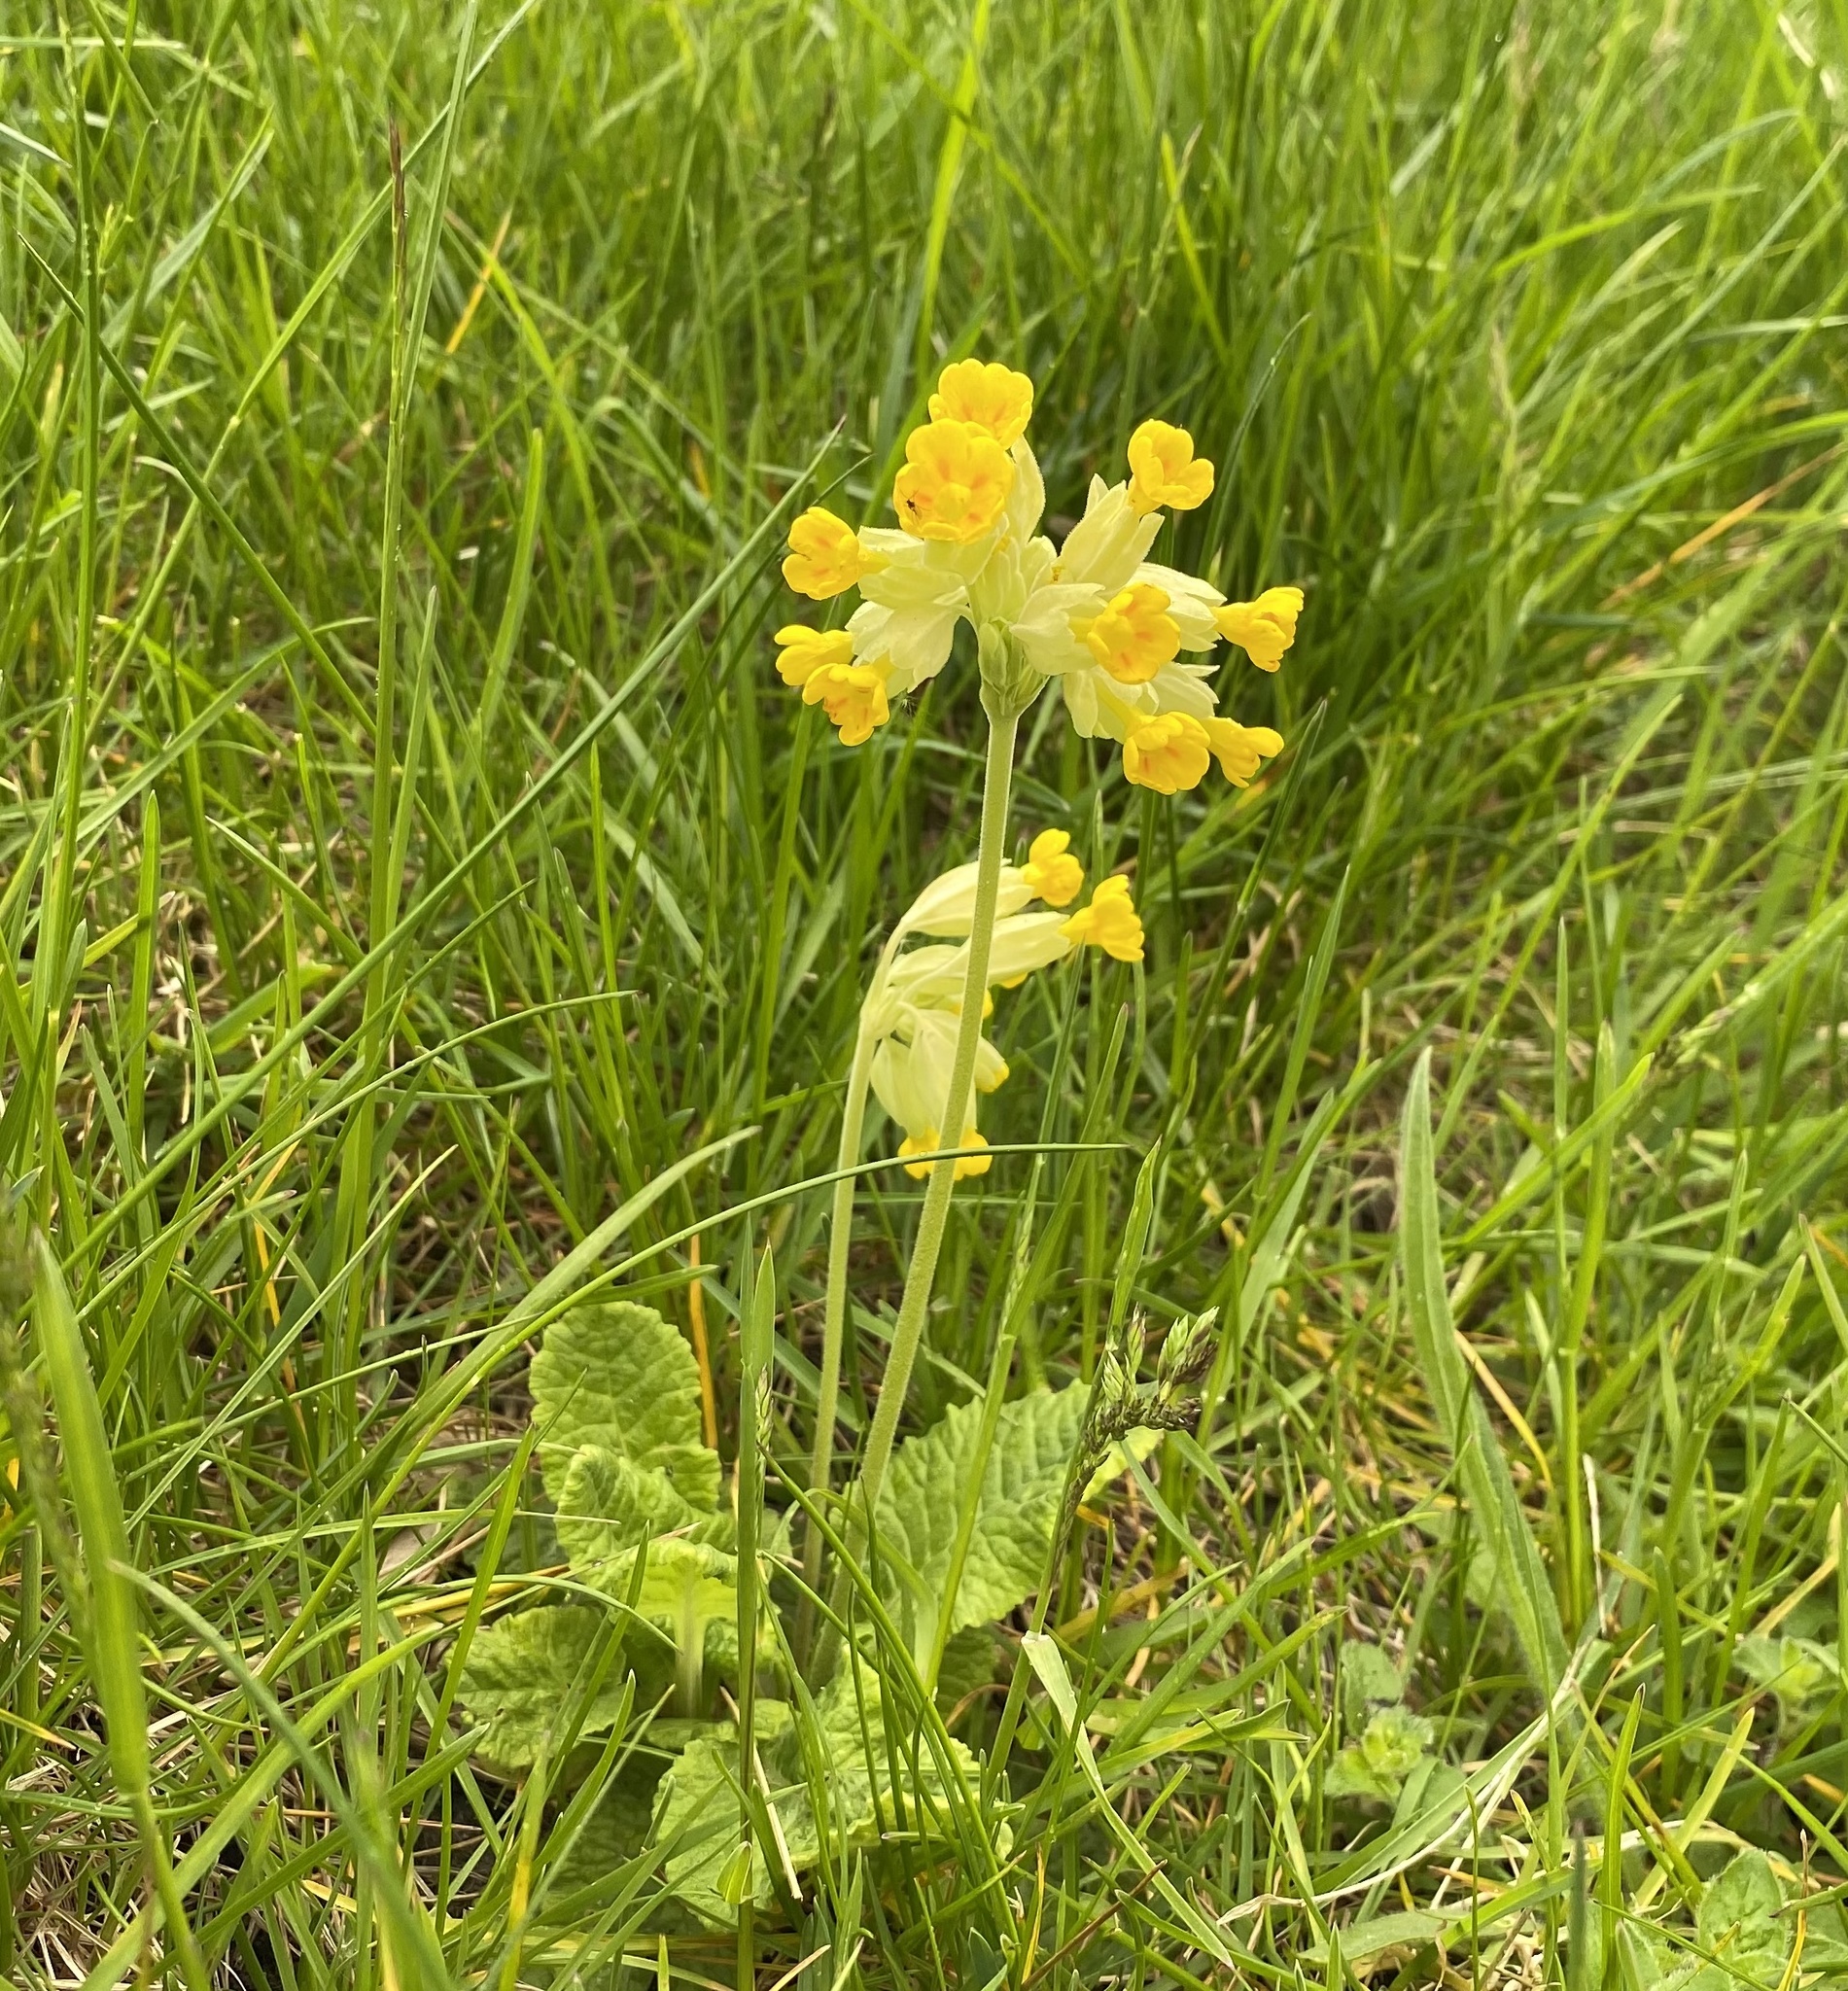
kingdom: Plantae
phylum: Tracheophyta
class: Magnoliopsida
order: Ericales
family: Primulaceae
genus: Primula
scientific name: Primula veris
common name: Cowslip
